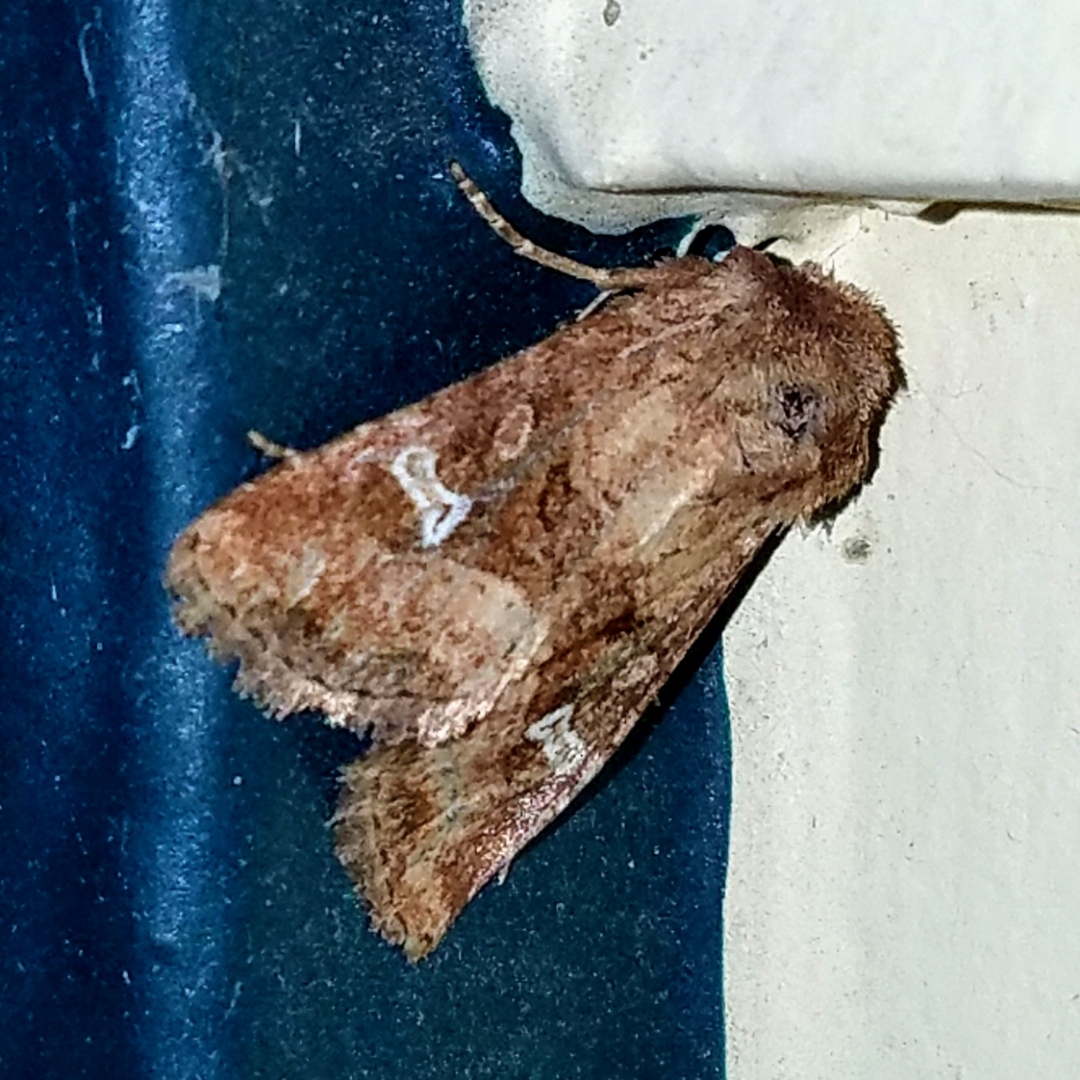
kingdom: Animalia
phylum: Arthropoda
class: Insecta
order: Lepidoptera
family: Noctuidae
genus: Lacinipolia
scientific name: Lacinipolia stricta
